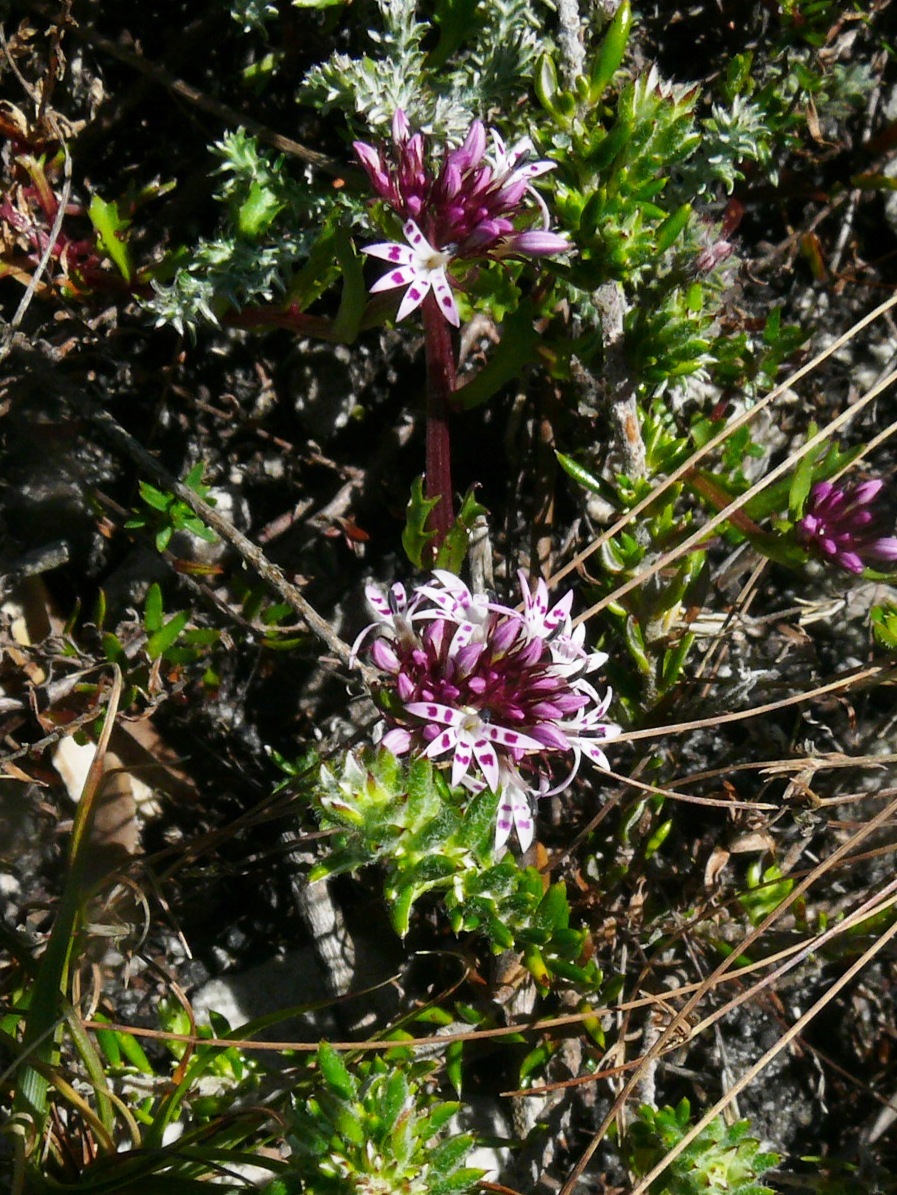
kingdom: Plantae
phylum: Tracheophyta
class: Magnoliopsida
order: Asterales
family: Campanulaceae
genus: Lobelia
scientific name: Lobelia jasionoides
